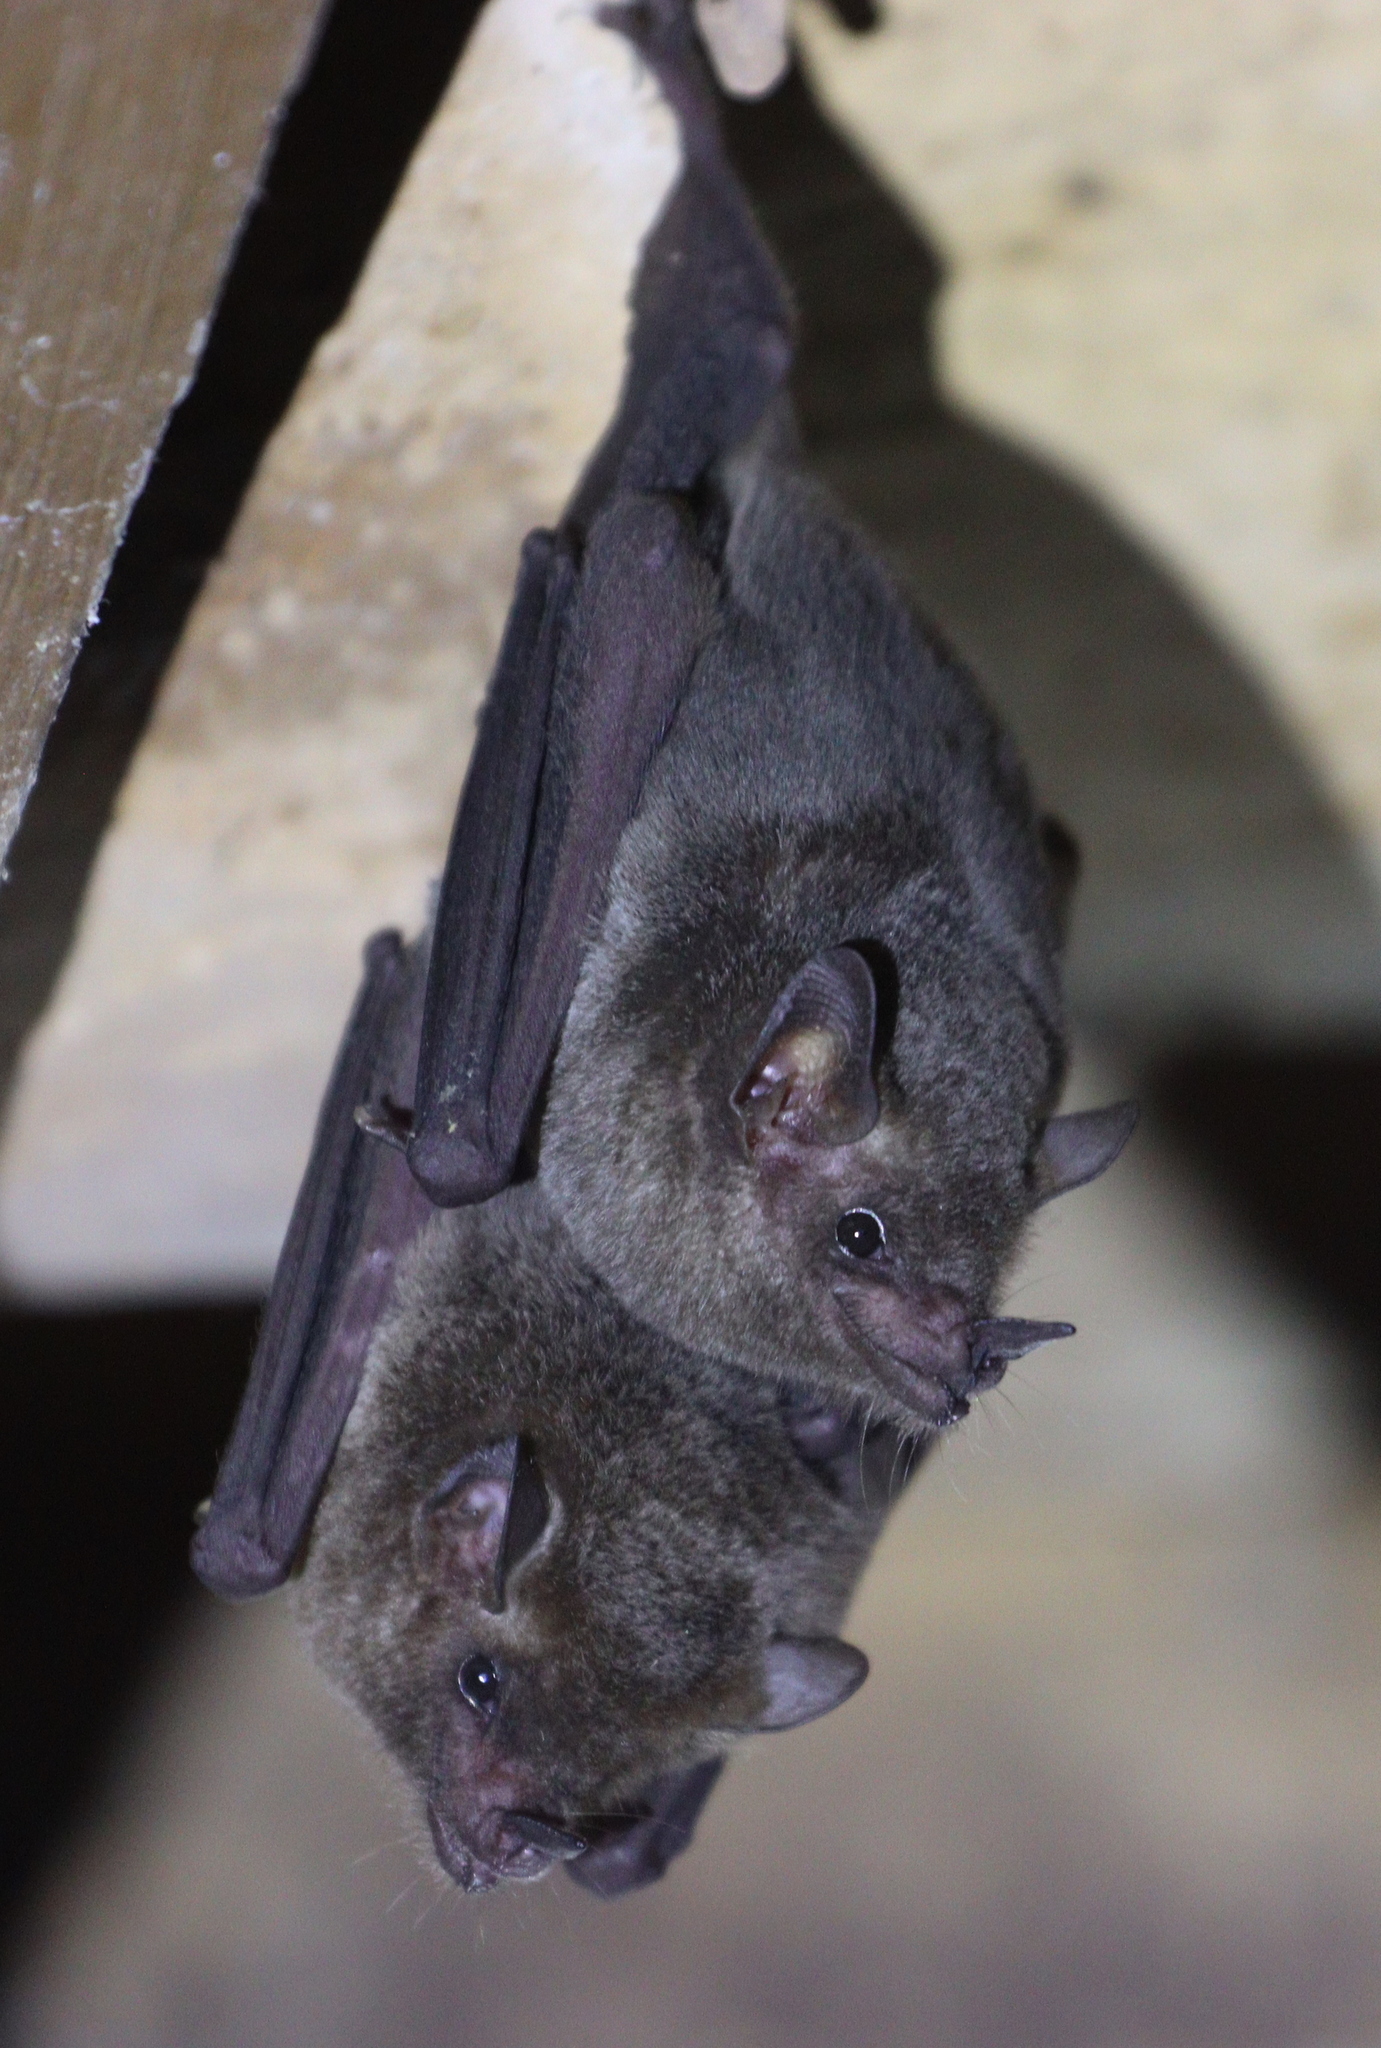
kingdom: Animalia
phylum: Chordata
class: Mammalia
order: Chiroptera
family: Phyllostomidae
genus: Glossophaga
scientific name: Glossophaga soricina
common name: Pallas's long-tongued bat
